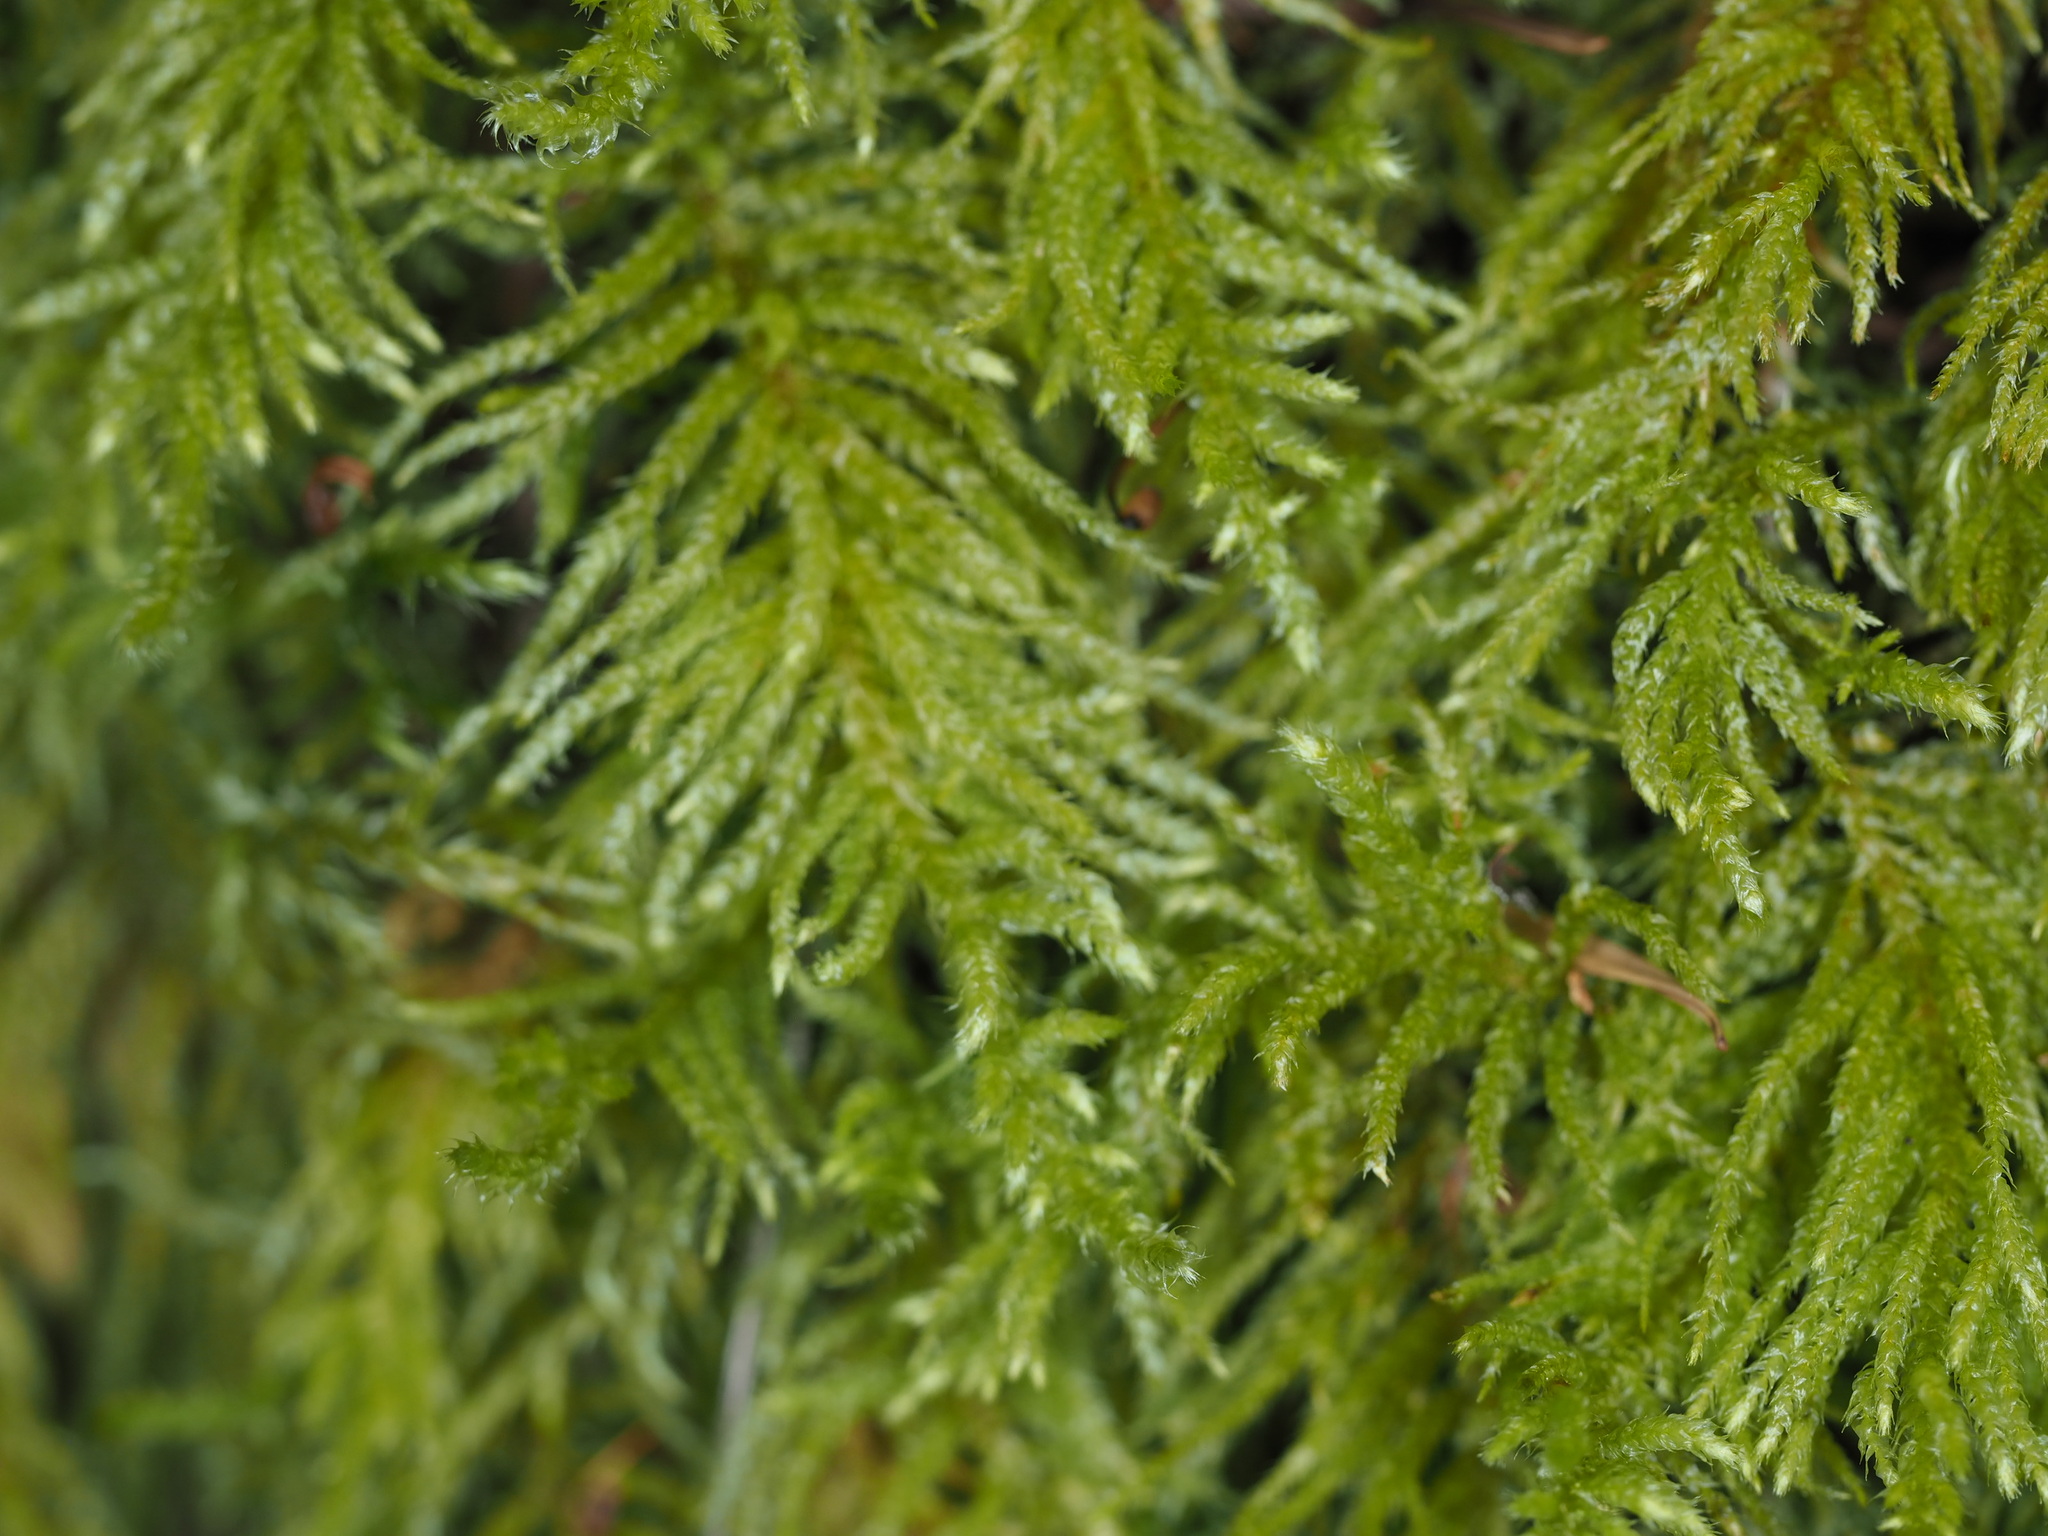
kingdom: Plantae
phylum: Bryophyta
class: Bryopsida
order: Hypnales
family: Brachytheciaceae
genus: Kindbergia
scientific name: Kindbergia oregana
